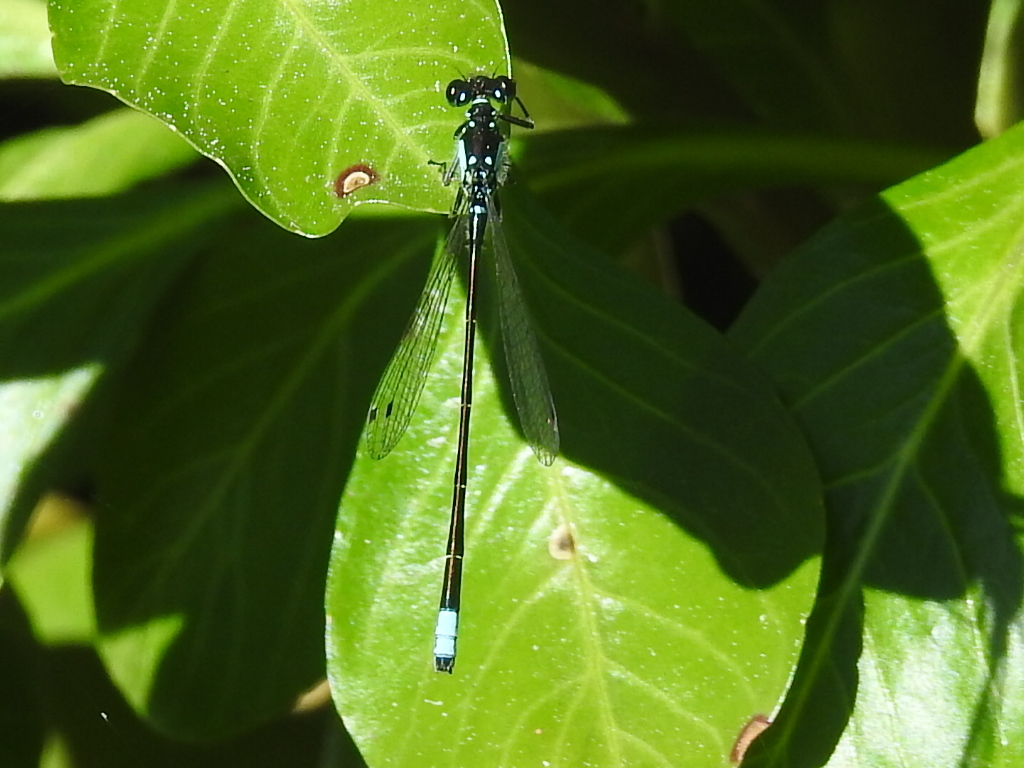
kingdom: Animalia
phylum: Arthropoda
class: Insecta
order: Odonata
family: Coenagrionidae
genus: Ischnura
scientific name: Ischnura cervula
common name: Pacific forktail
